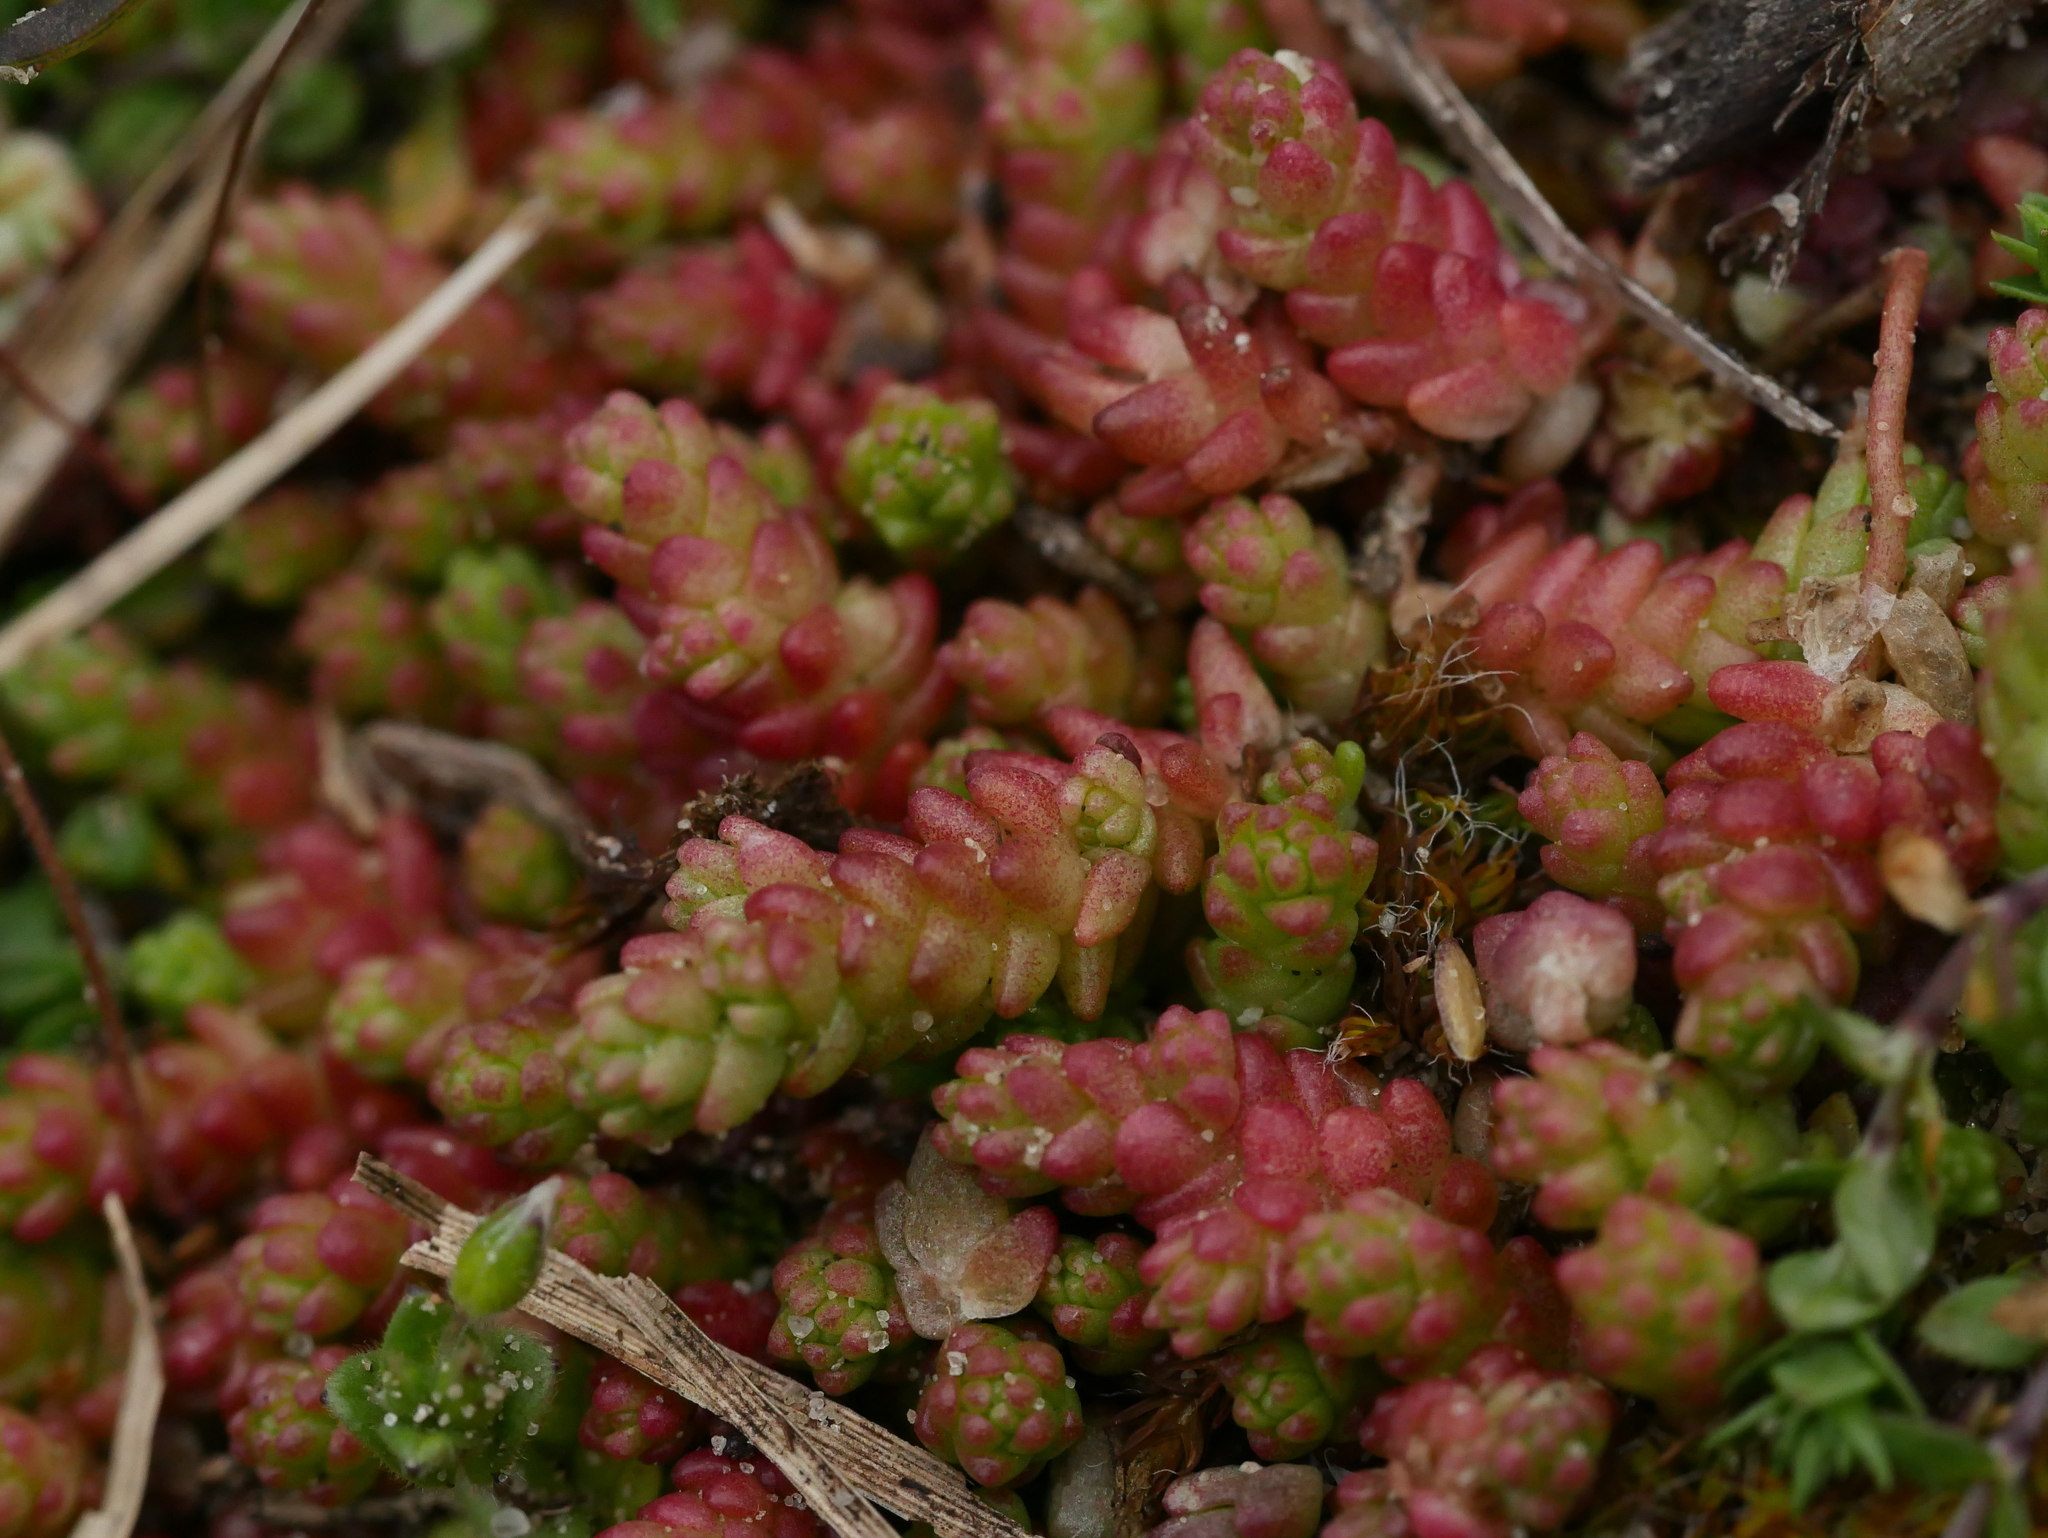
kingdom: Plantae
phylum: Tracheophyta
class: Magnoliopsida
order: Saxifragales
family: Crassulaceae
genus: Sedum
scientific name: Sedum acre
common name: Biting stonecrop
